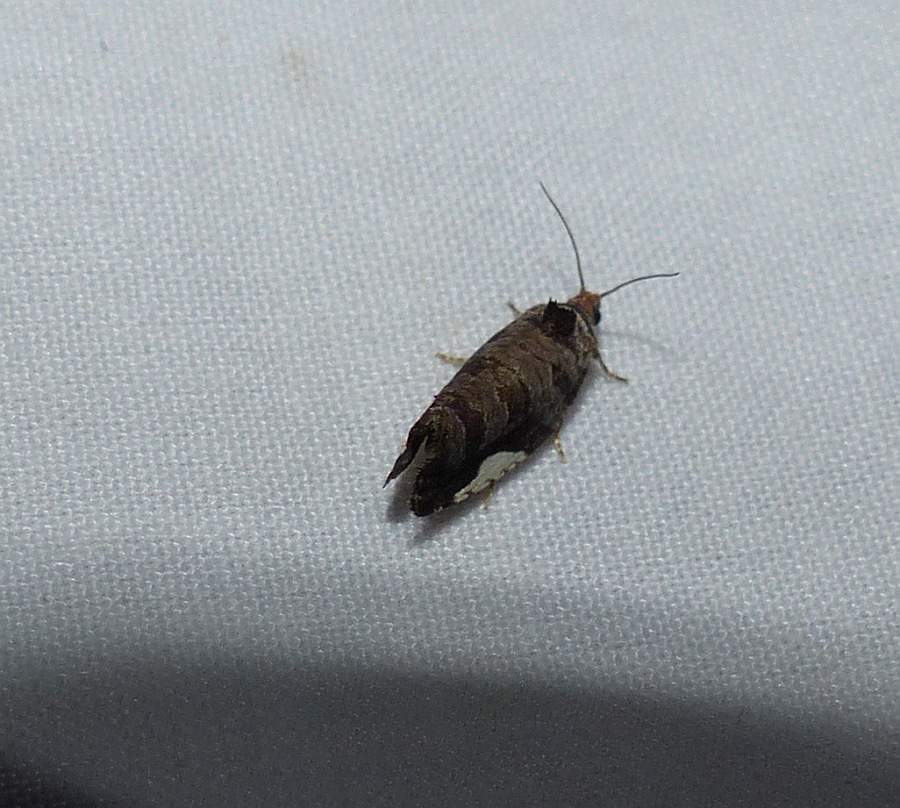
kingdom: Animalia
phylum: Arthropoda
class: Insecta
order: Lepidoptera
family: Tortricidae
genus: Hedya
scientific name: Hedya chionosema
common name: White-spotted hedya moth
